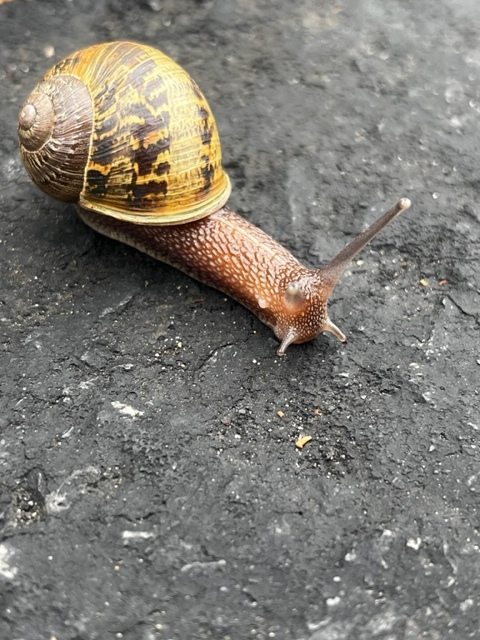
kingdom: Animalia
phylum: Mollusca
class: Gastropoda
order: Stylommatophora
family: Helicidae
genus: Cornu
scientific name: Cornu aspersum
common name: Brown garden snail
